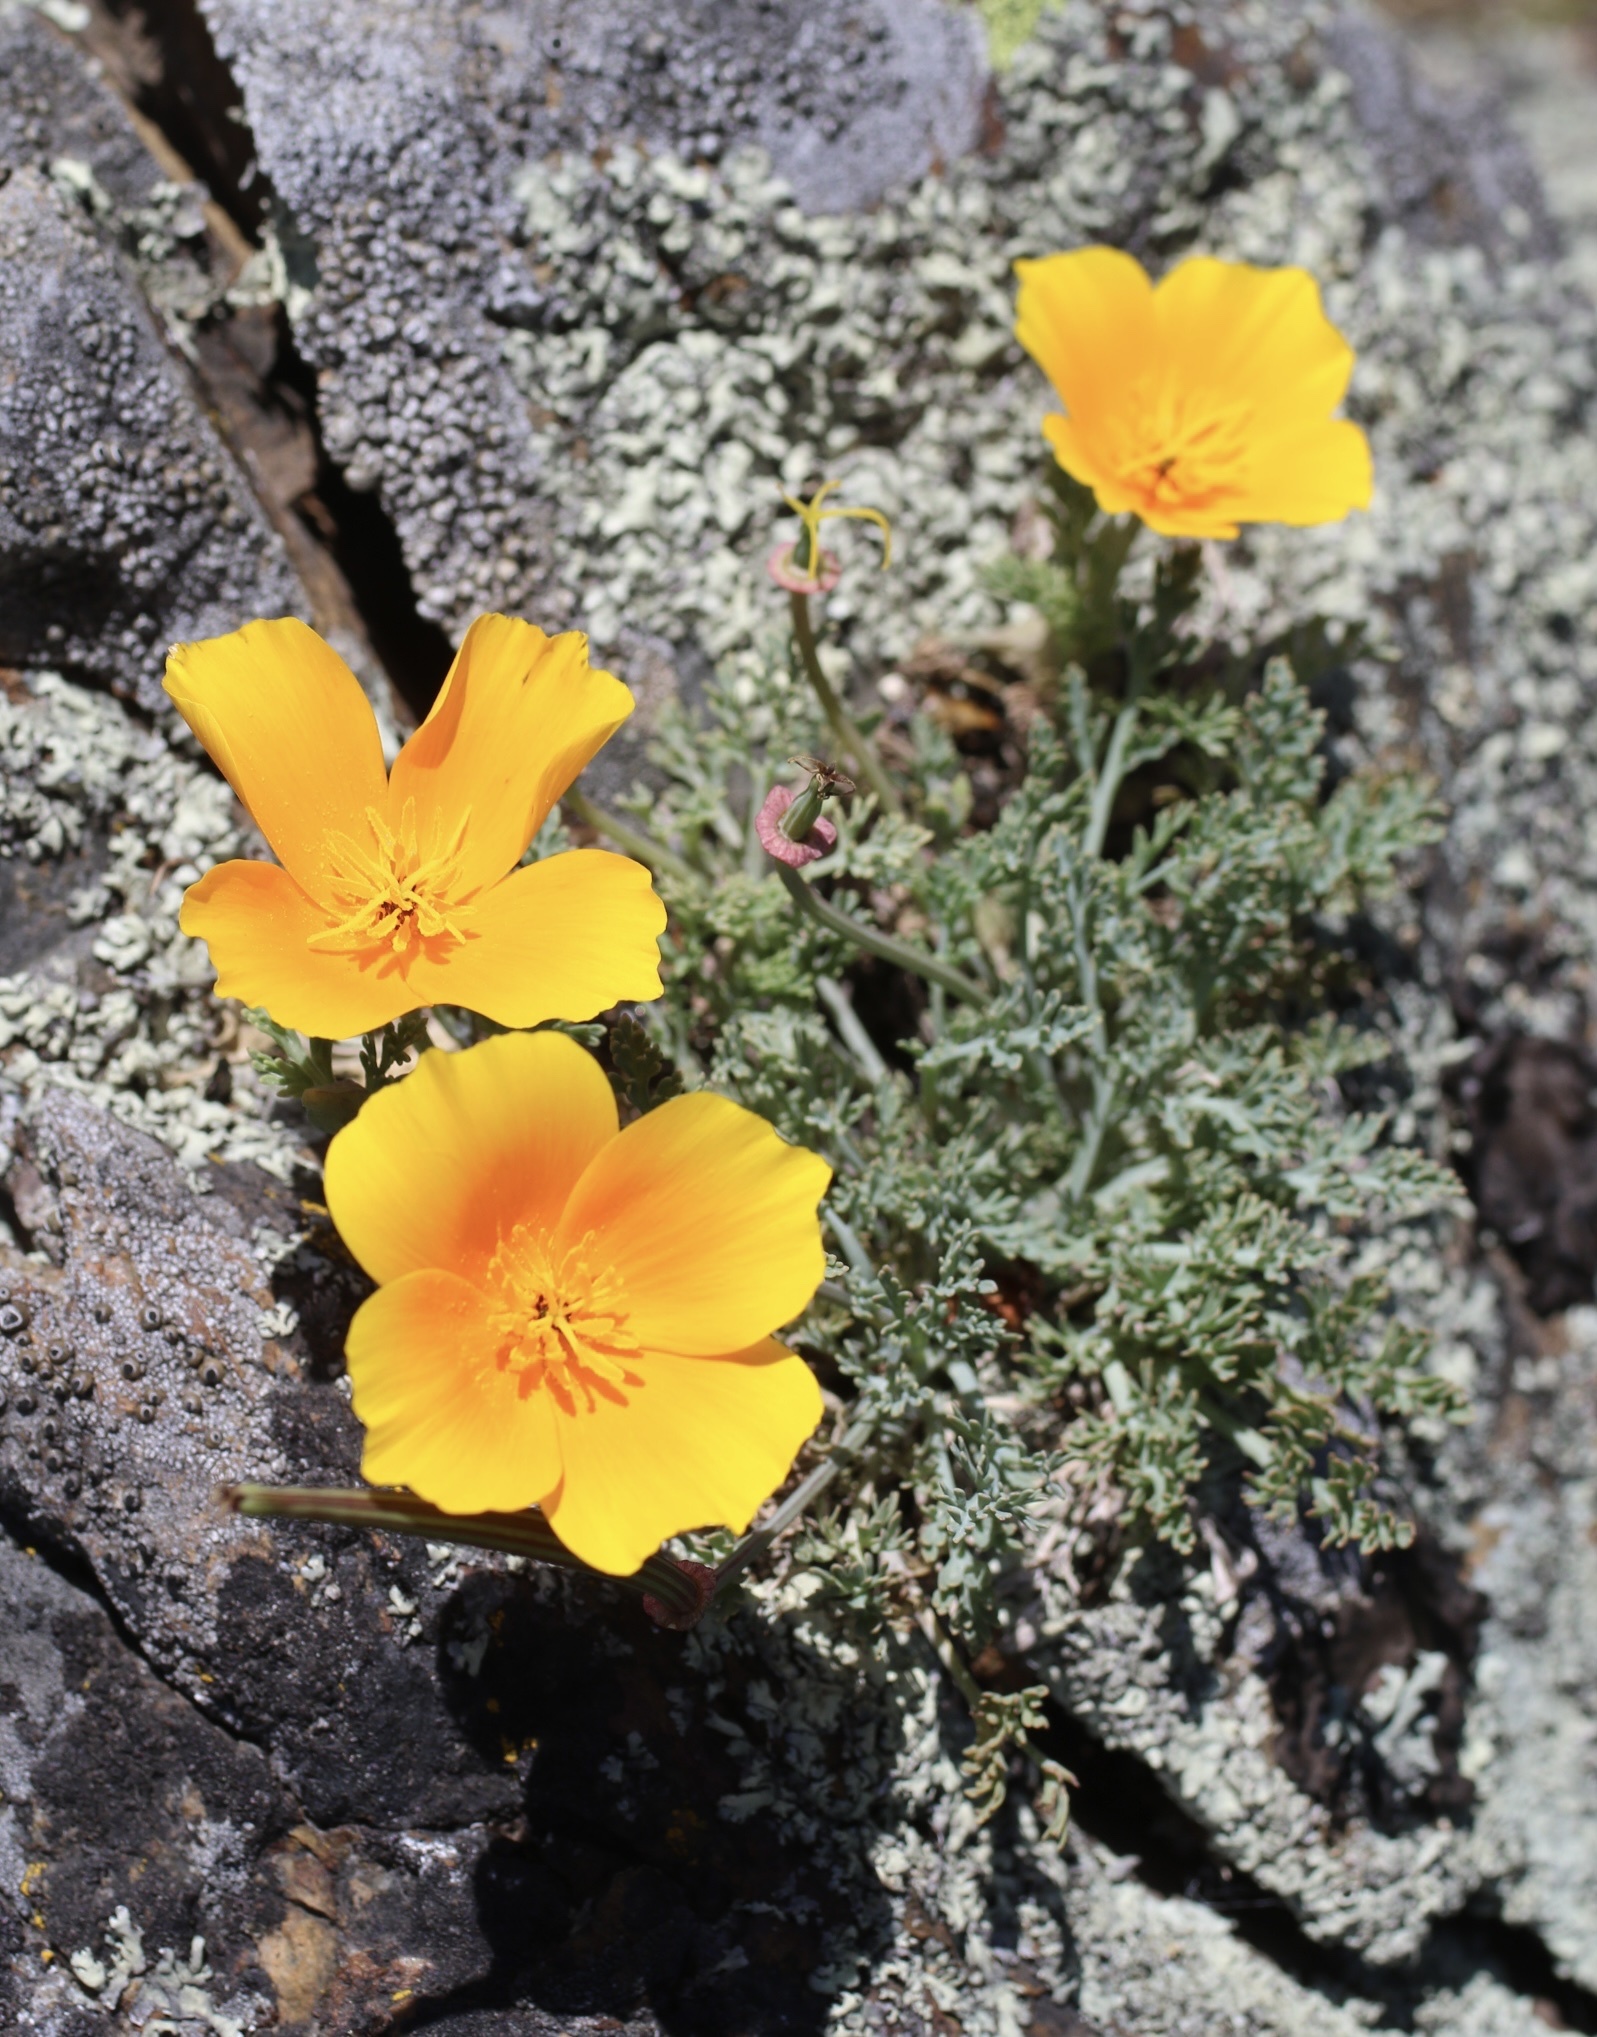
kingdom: Plantae
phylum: Tracheophyta
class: Magnoliopsida
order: Ranunculales
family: Papaveraceae
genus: Eschscholzia
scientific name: Eschscholzia californica
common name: California poppy
